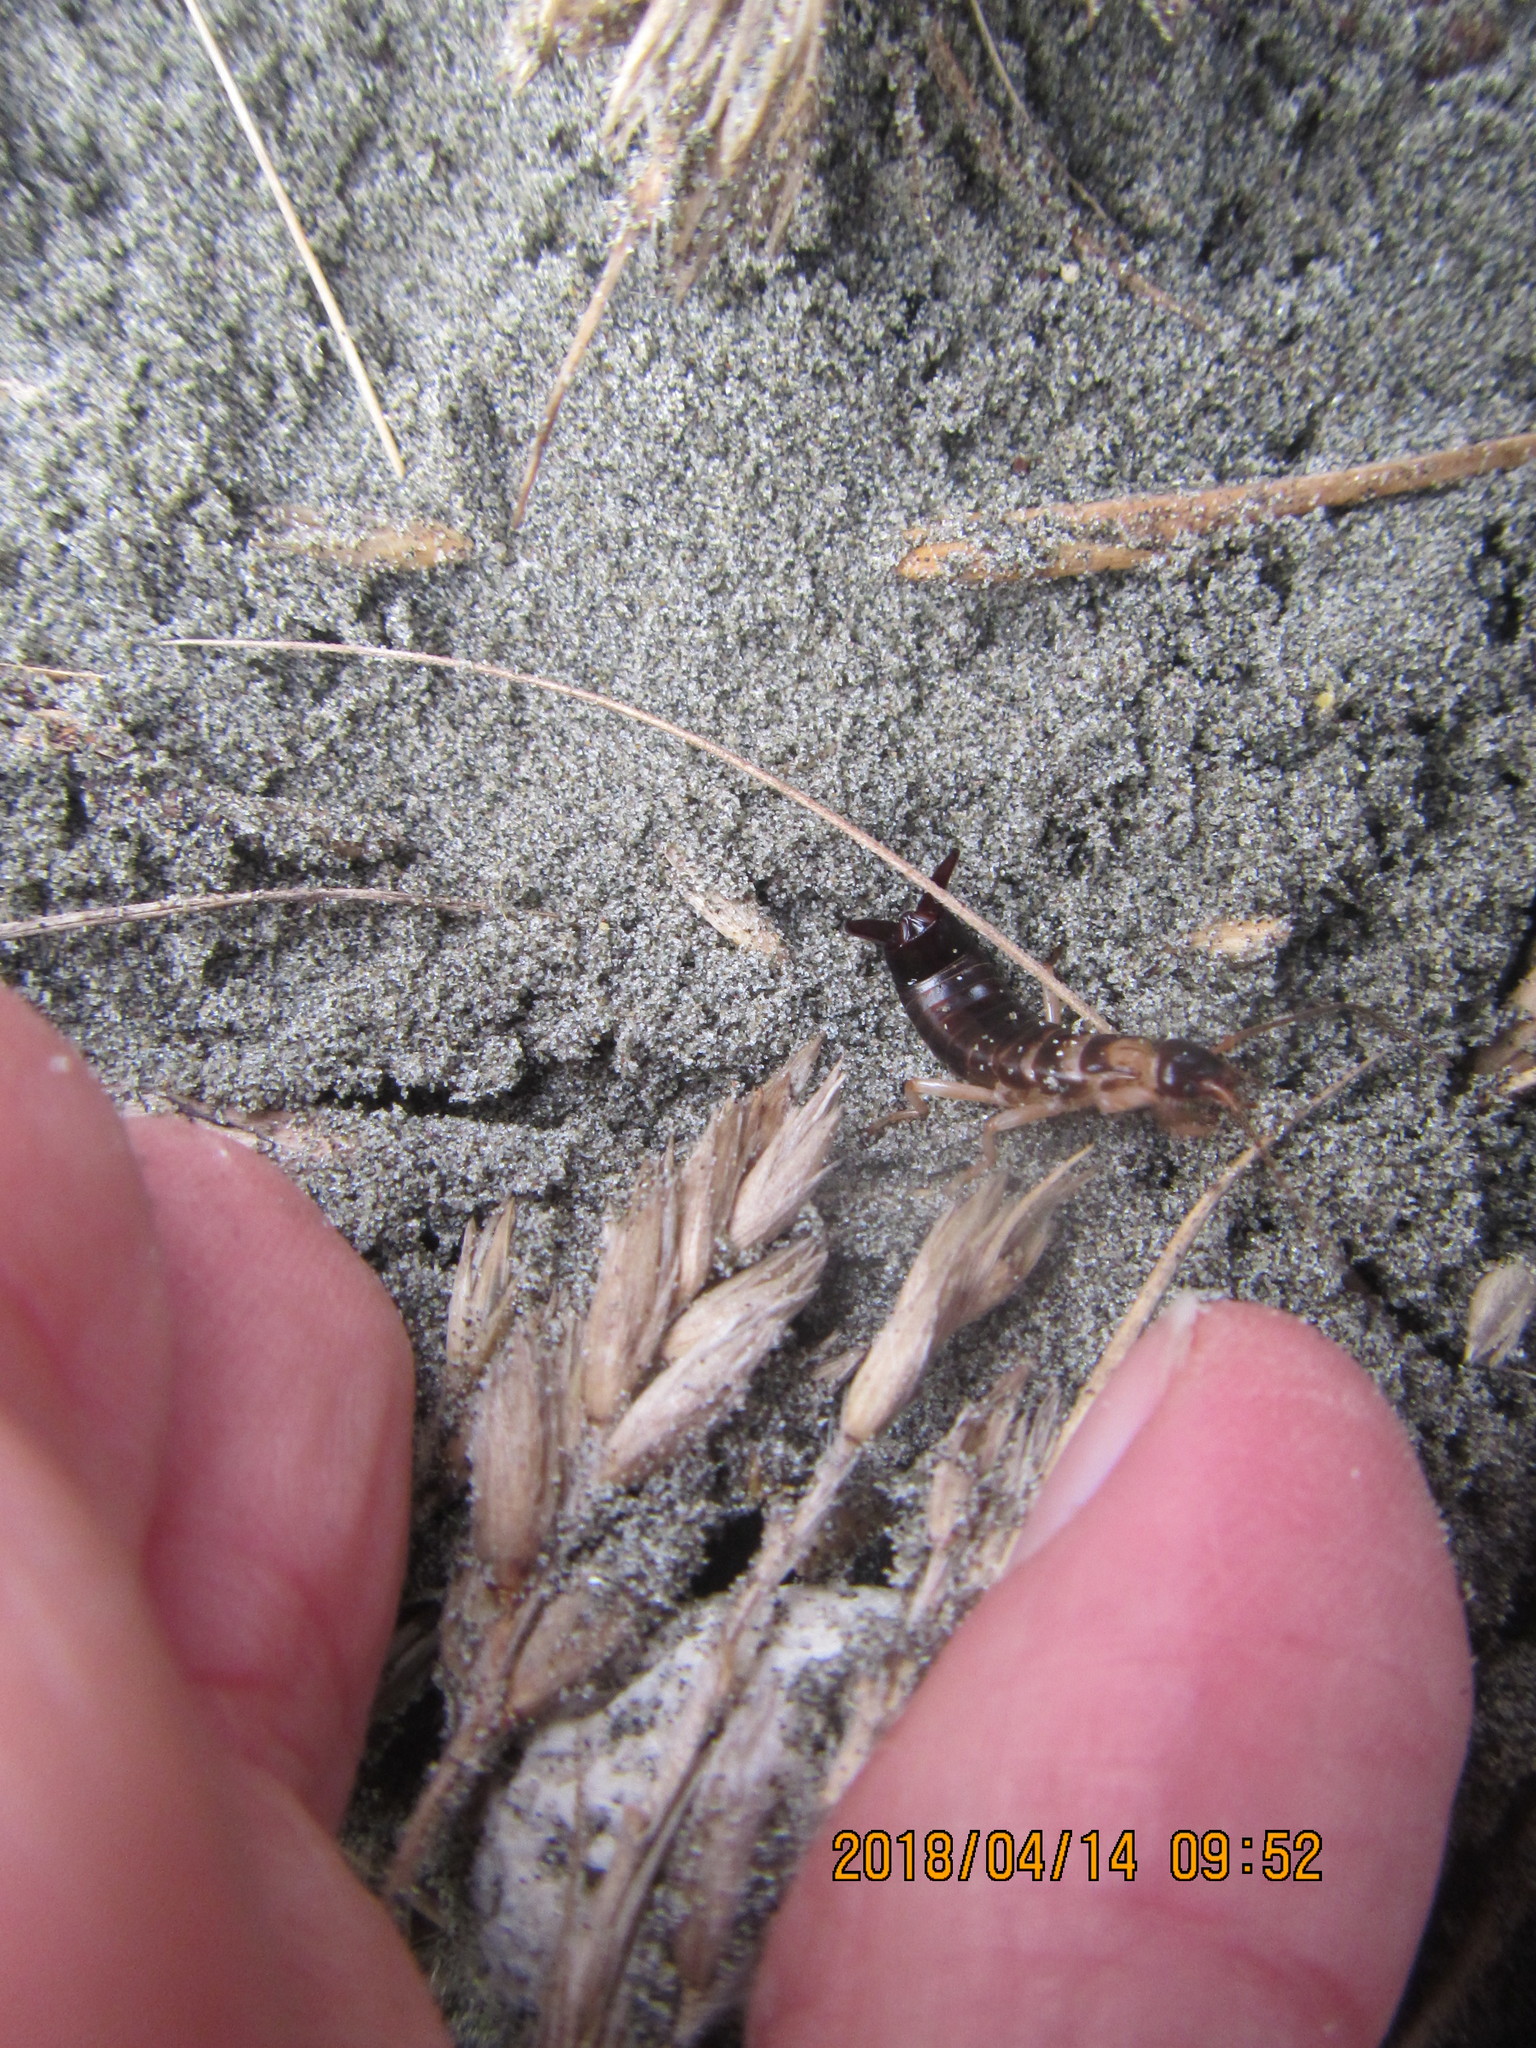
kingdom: Animalia
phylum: Arthropoda
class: Insecta
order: Dermaptera
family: Anisolabididae
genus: Anisolabis
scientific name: Anisolabis littorea
